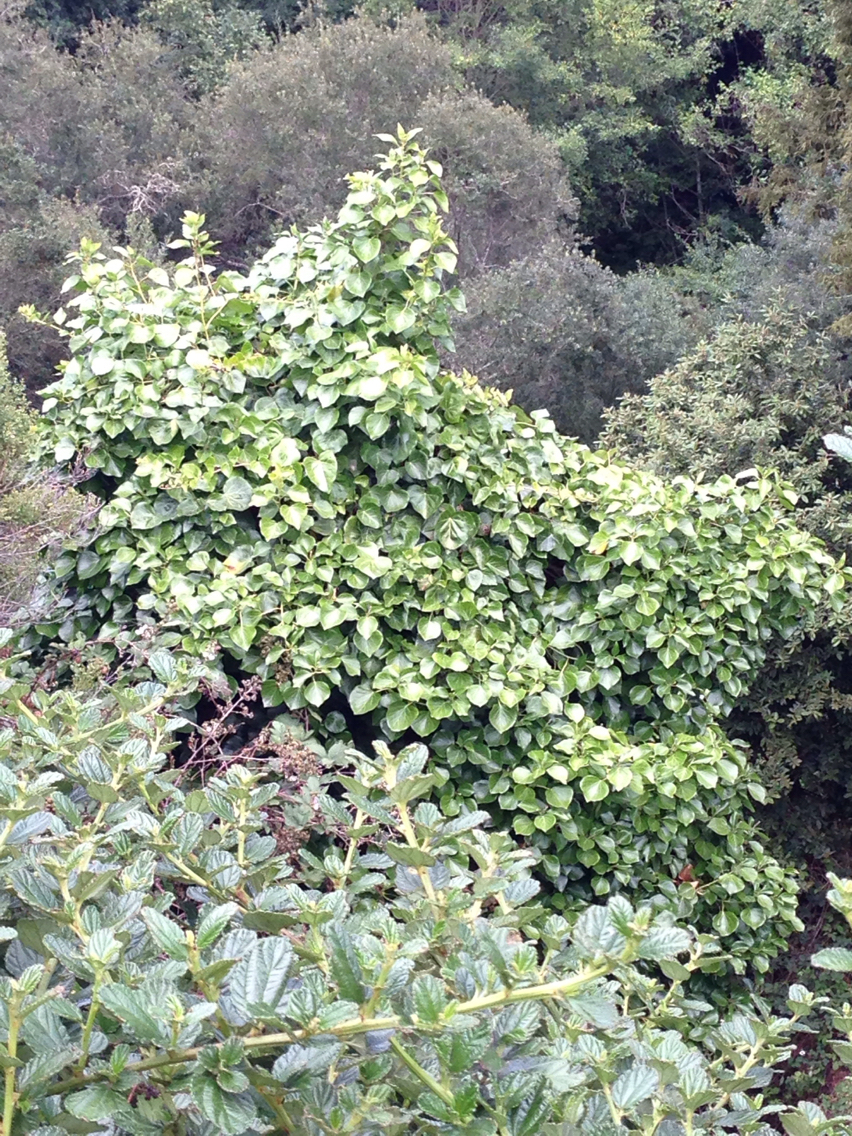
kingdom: Plantae
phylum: Tracheophyta
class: Magnoliopsida
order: Apiales
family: Araliaceae
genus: Hedera
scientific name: Hedera helix
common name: Ivy
